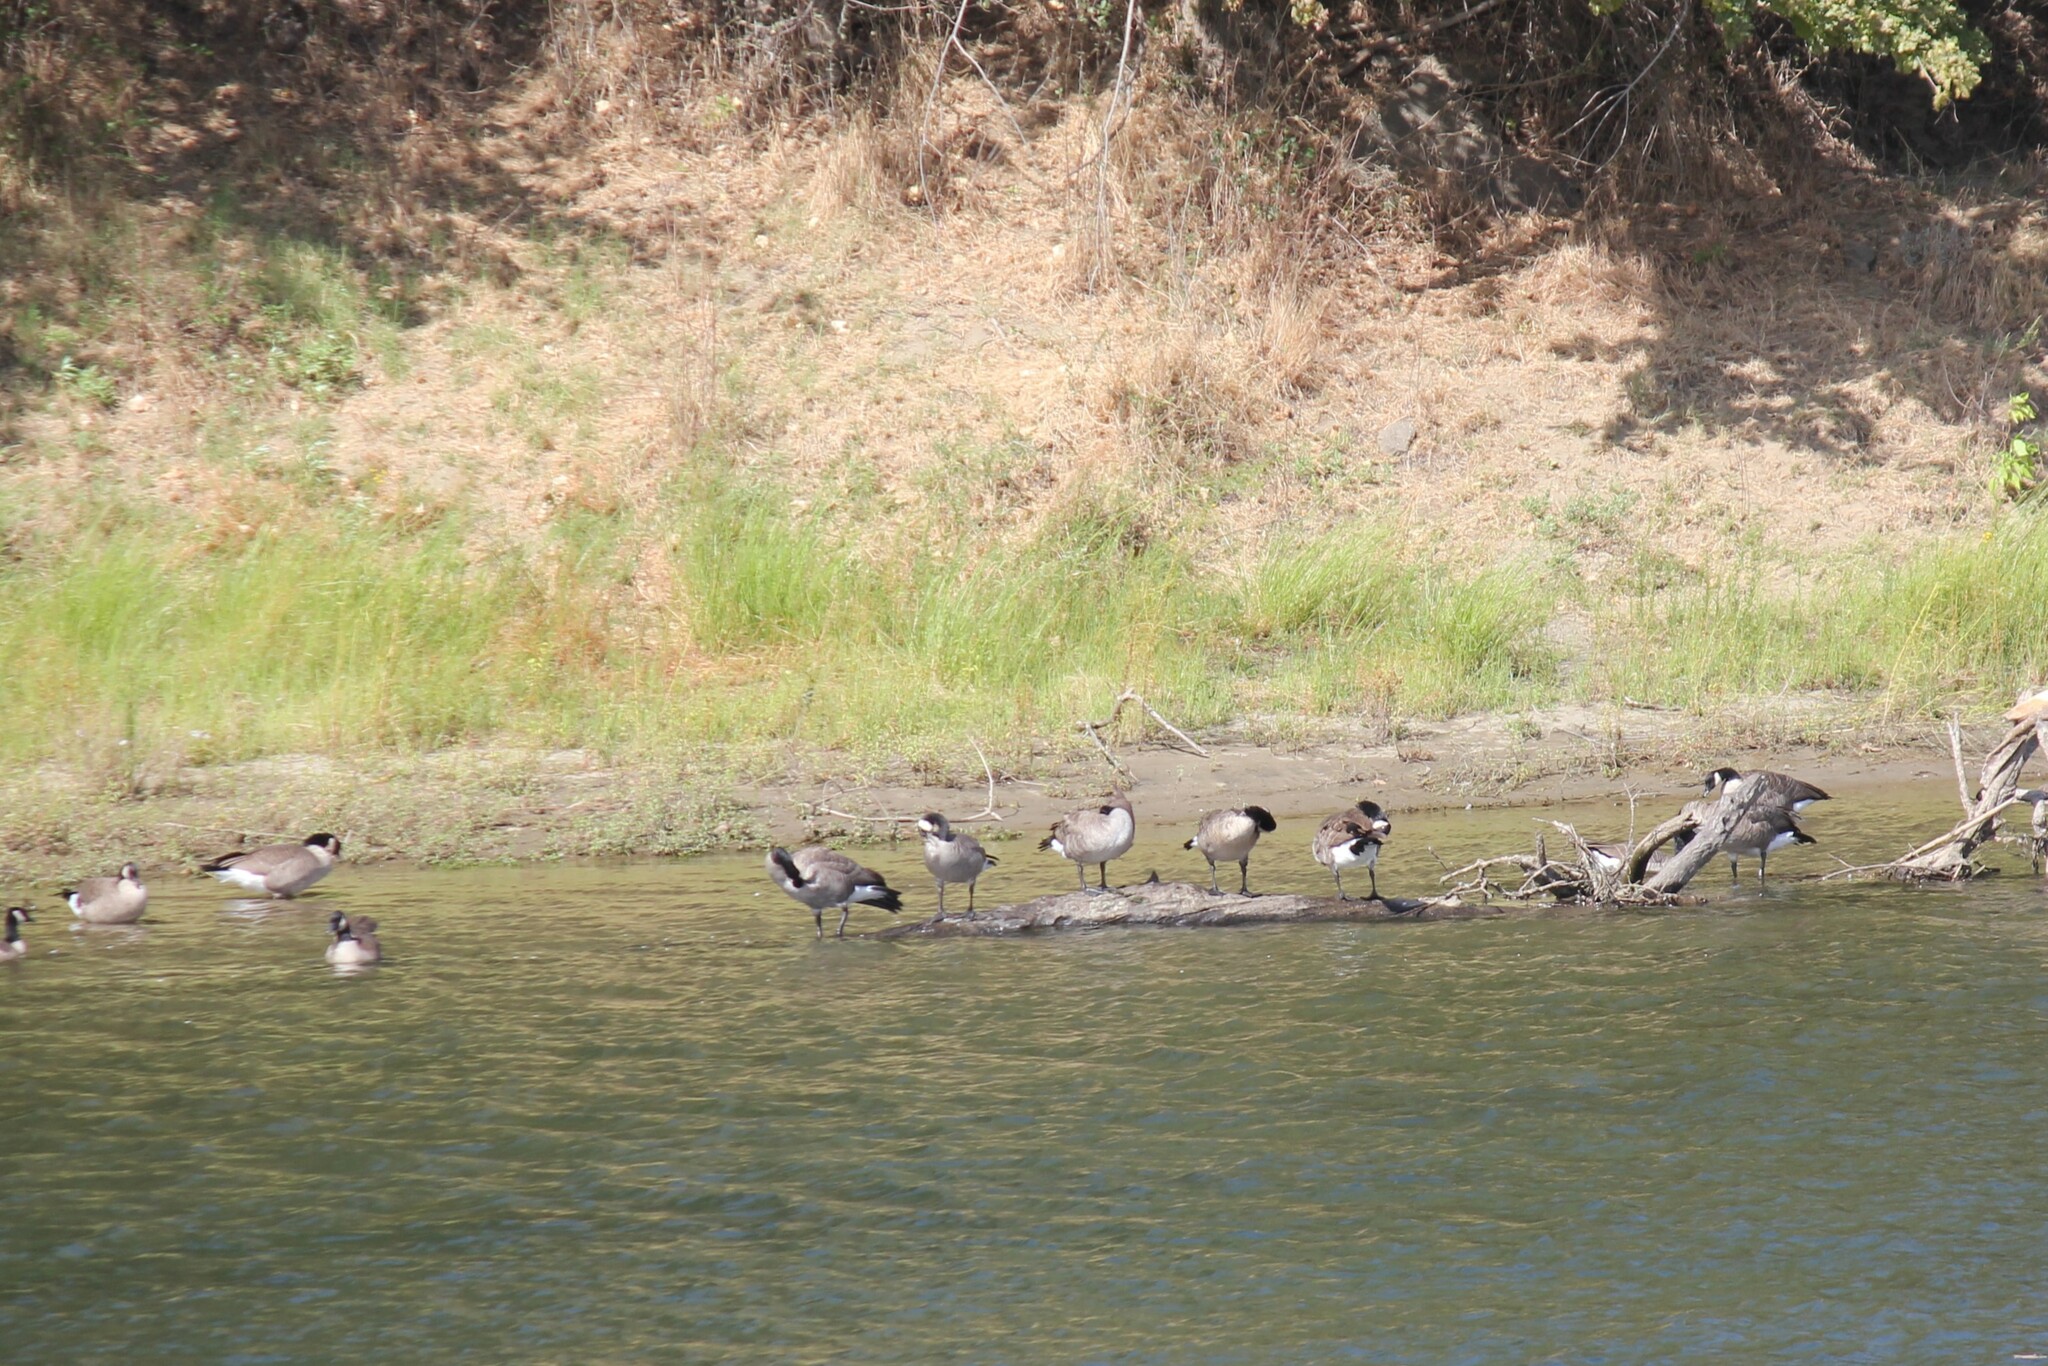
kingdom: Animalia
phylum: Chordata
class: Aves
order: Anseriformes
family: Anatidae
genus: Branta
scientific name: Branta canadensis
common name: Canada goose
